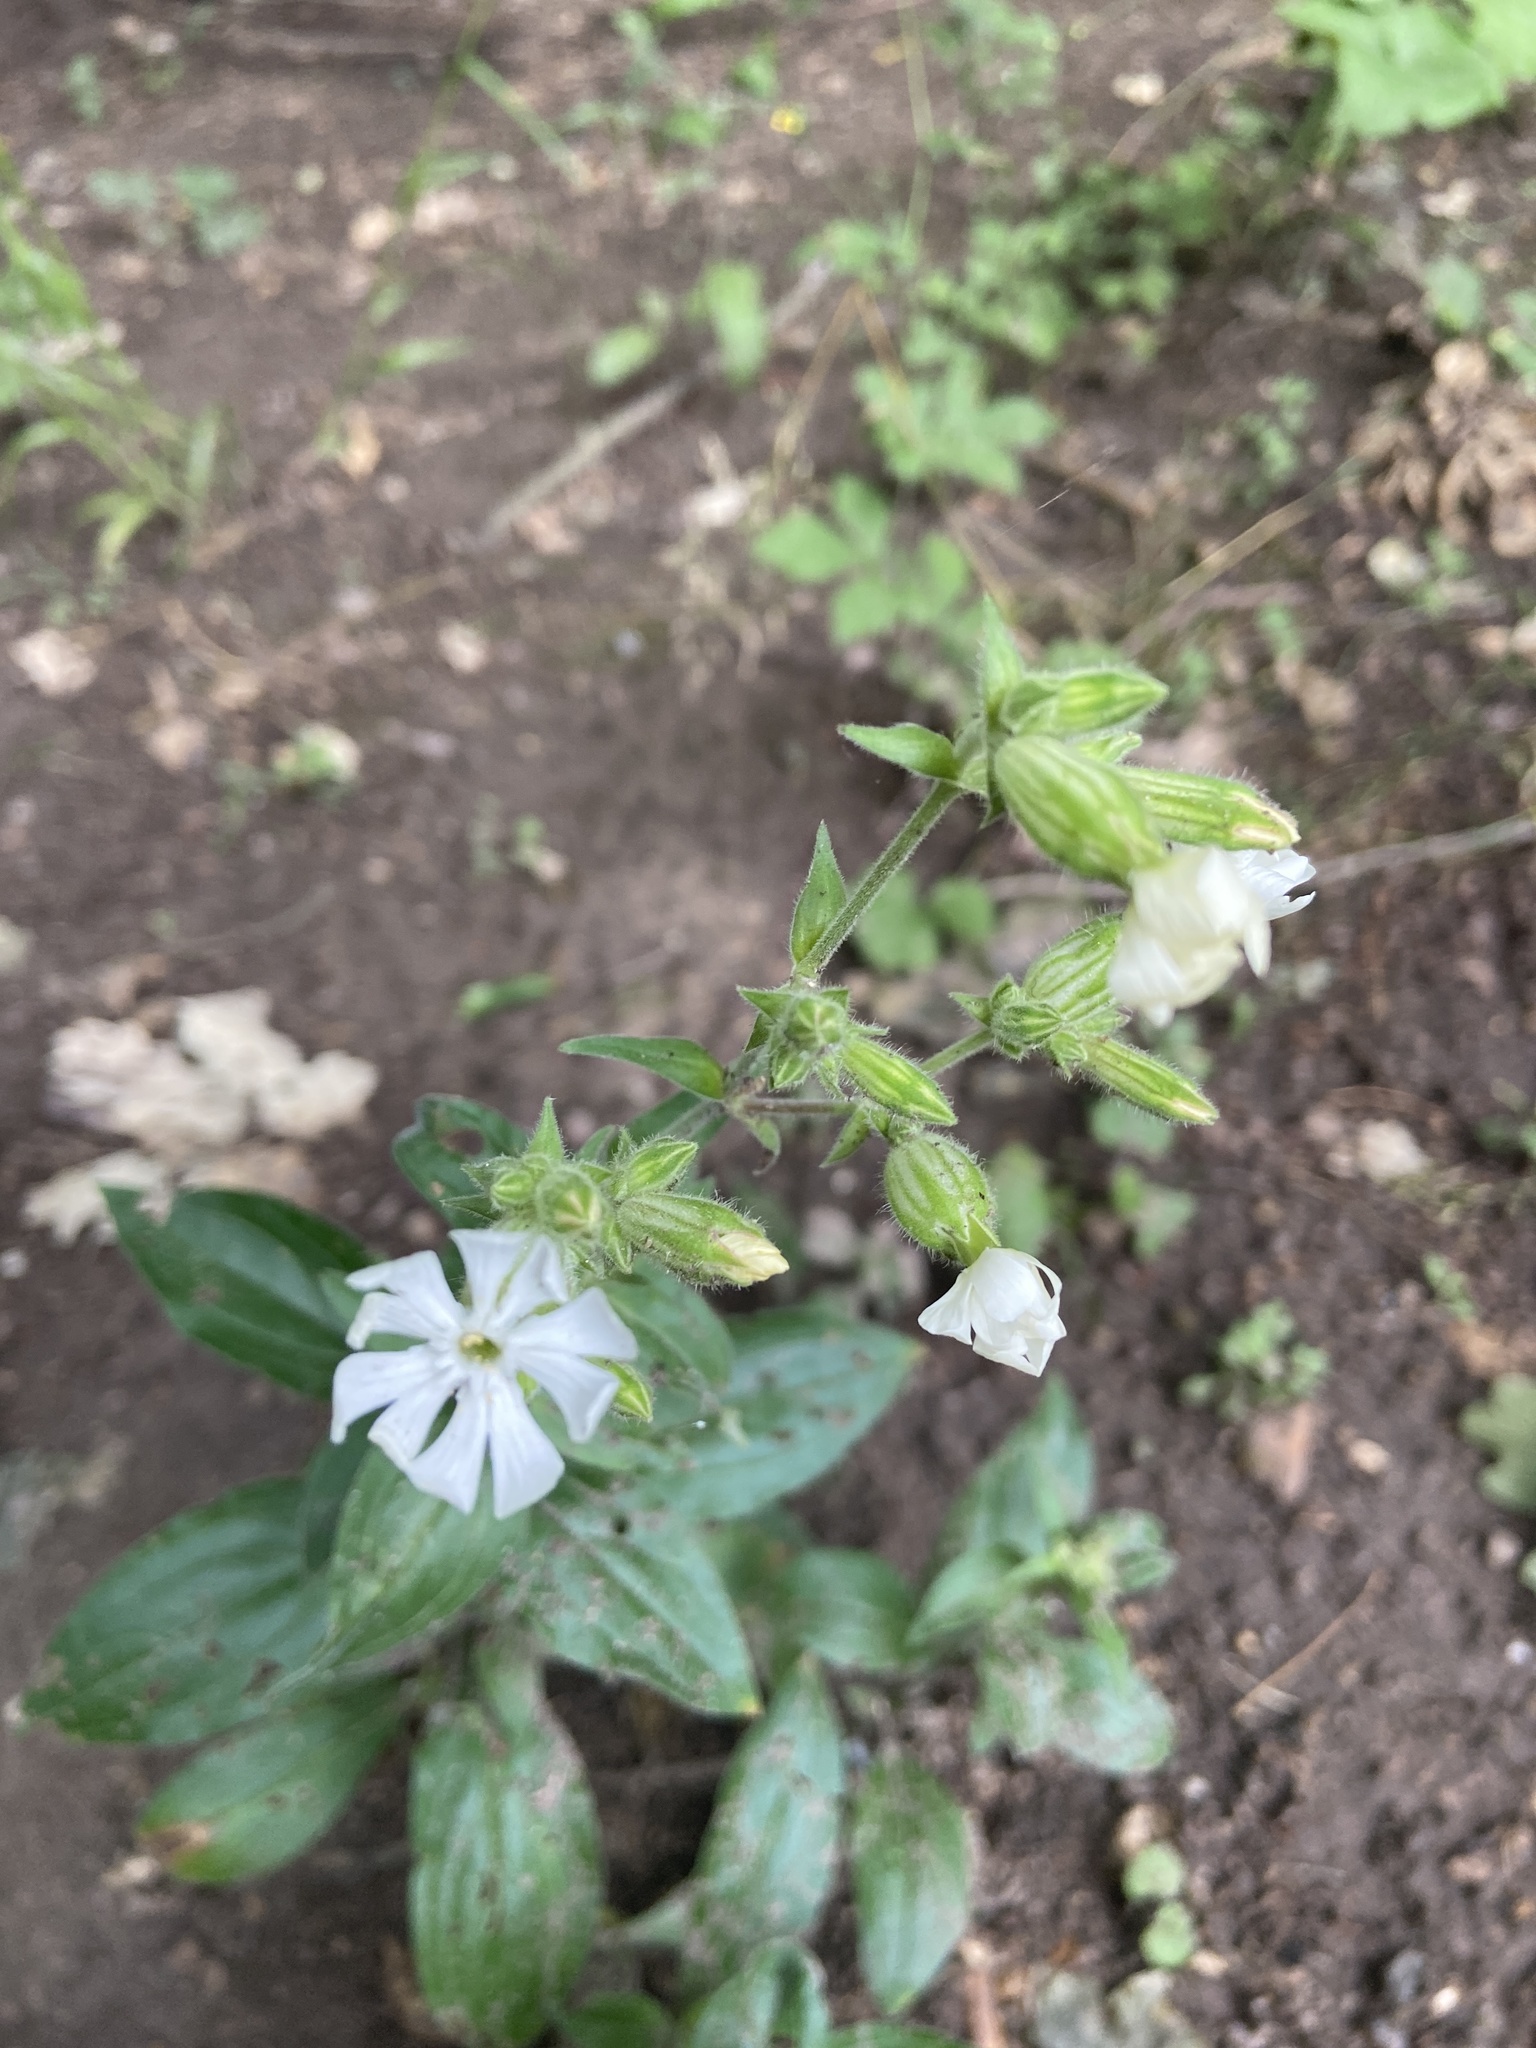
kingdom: Plantae
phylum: Tracheophyta
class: Magnoliopsida
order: Caryophyllales
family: Caryophyllaceae
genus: Silene
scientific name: Silene latifolia
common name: White campion
